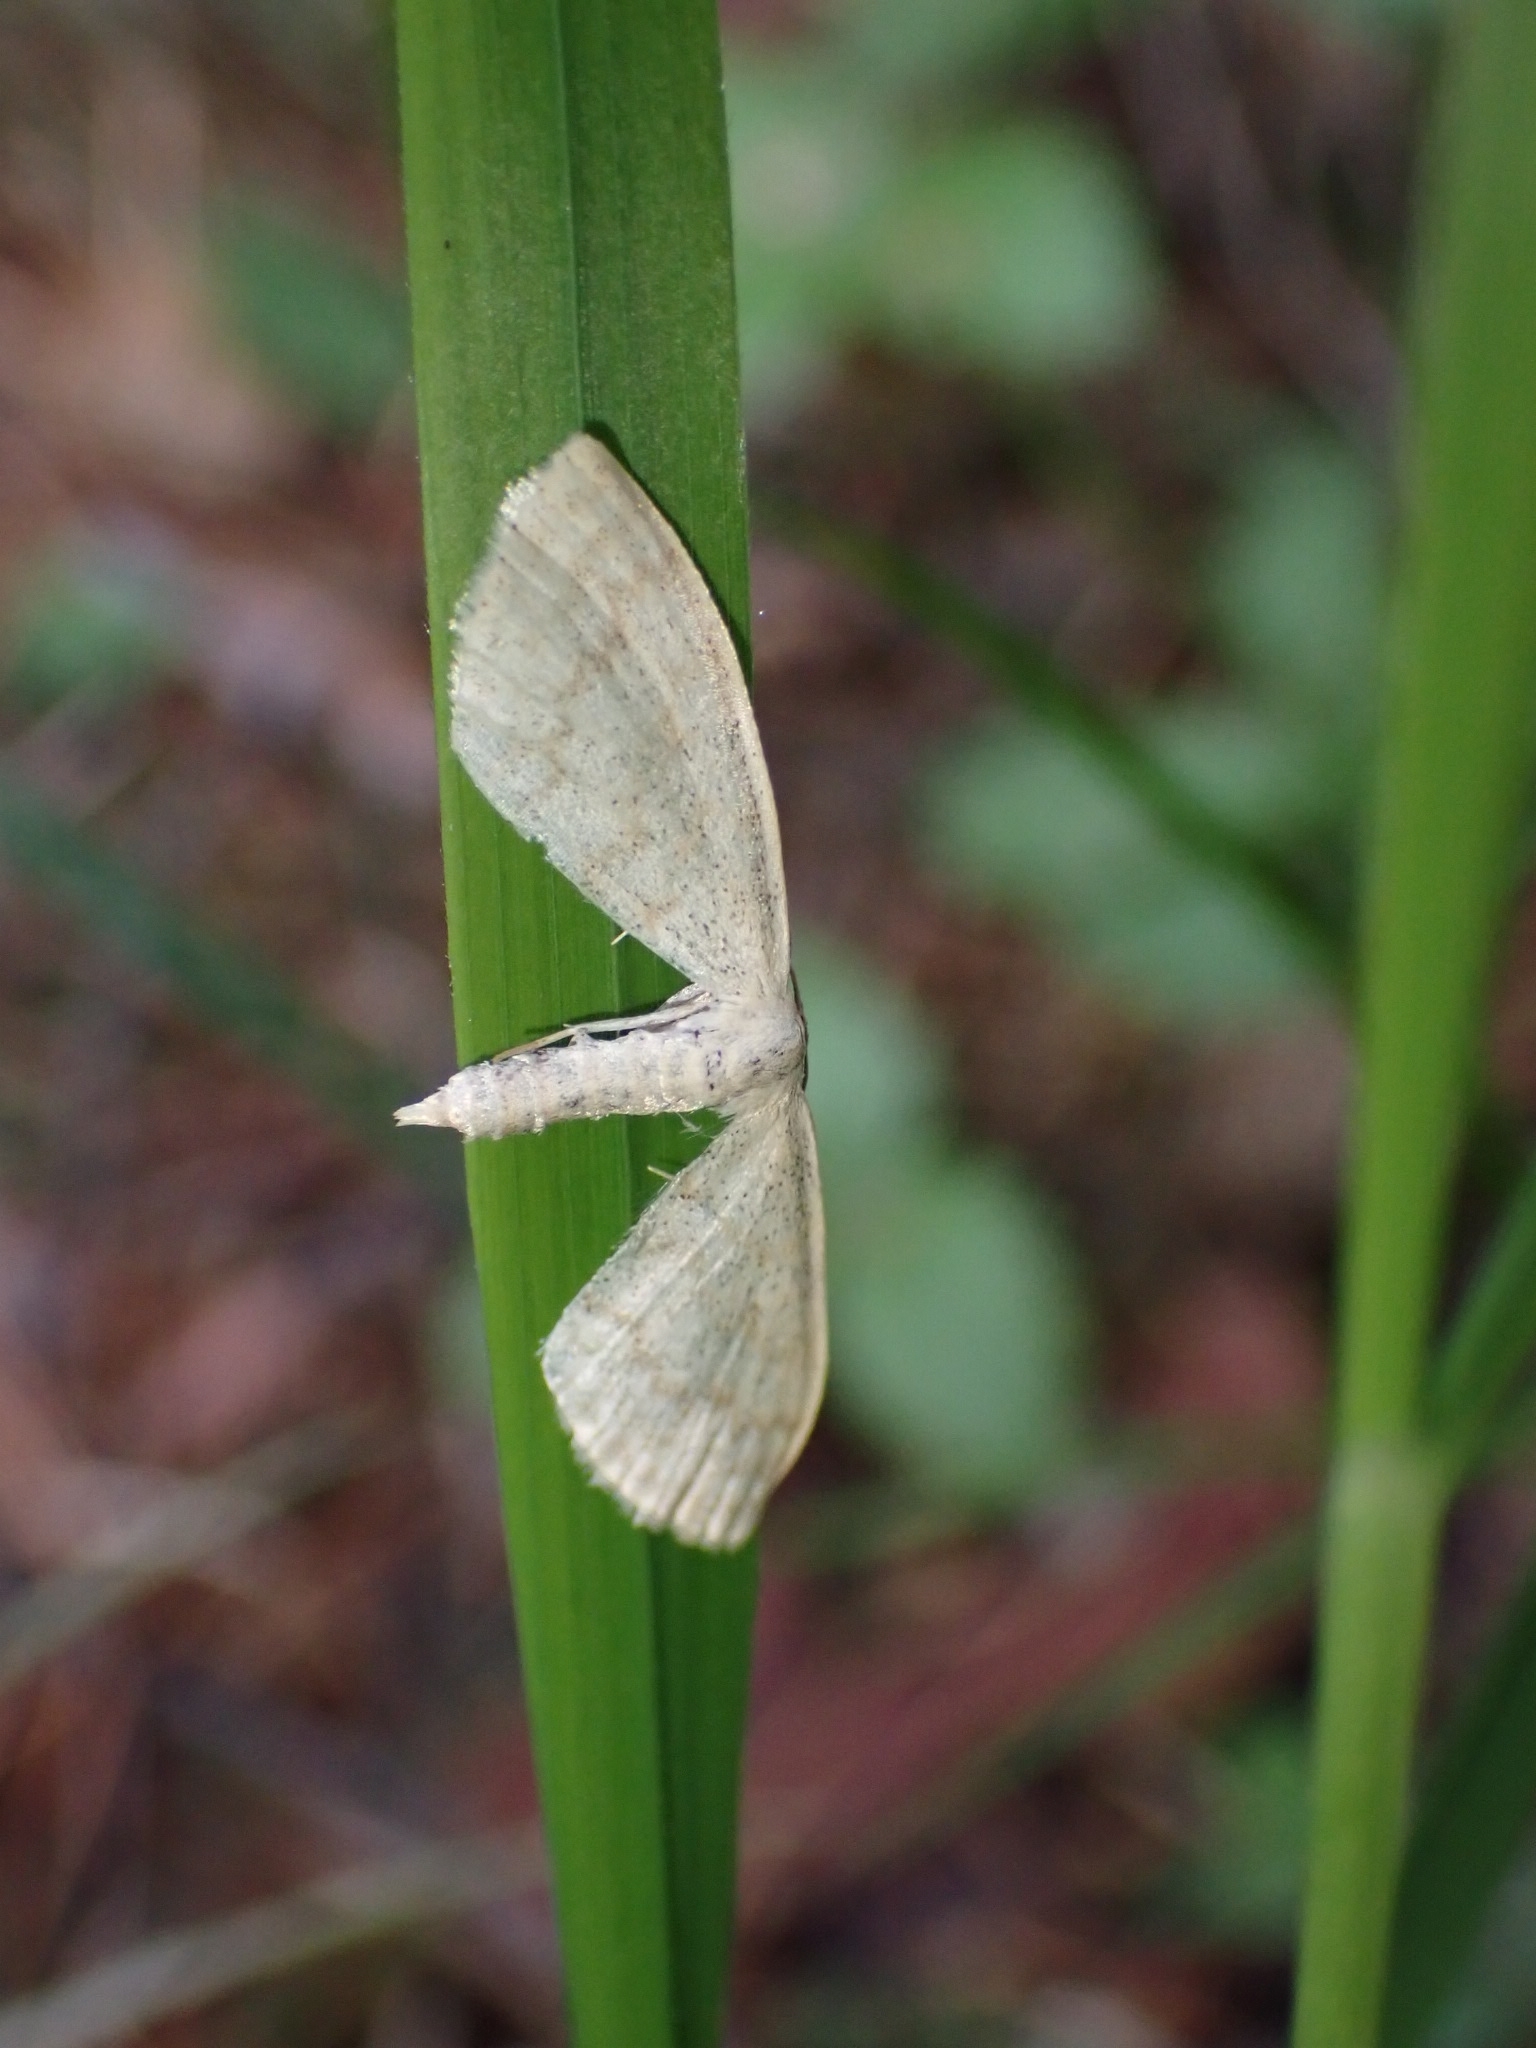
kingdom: Animalia
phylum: Arthropoda
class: Insecta
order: Lepidoptera
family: Geometridae
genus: Scopula
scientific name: Scopula floslactata
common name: Cream wave
